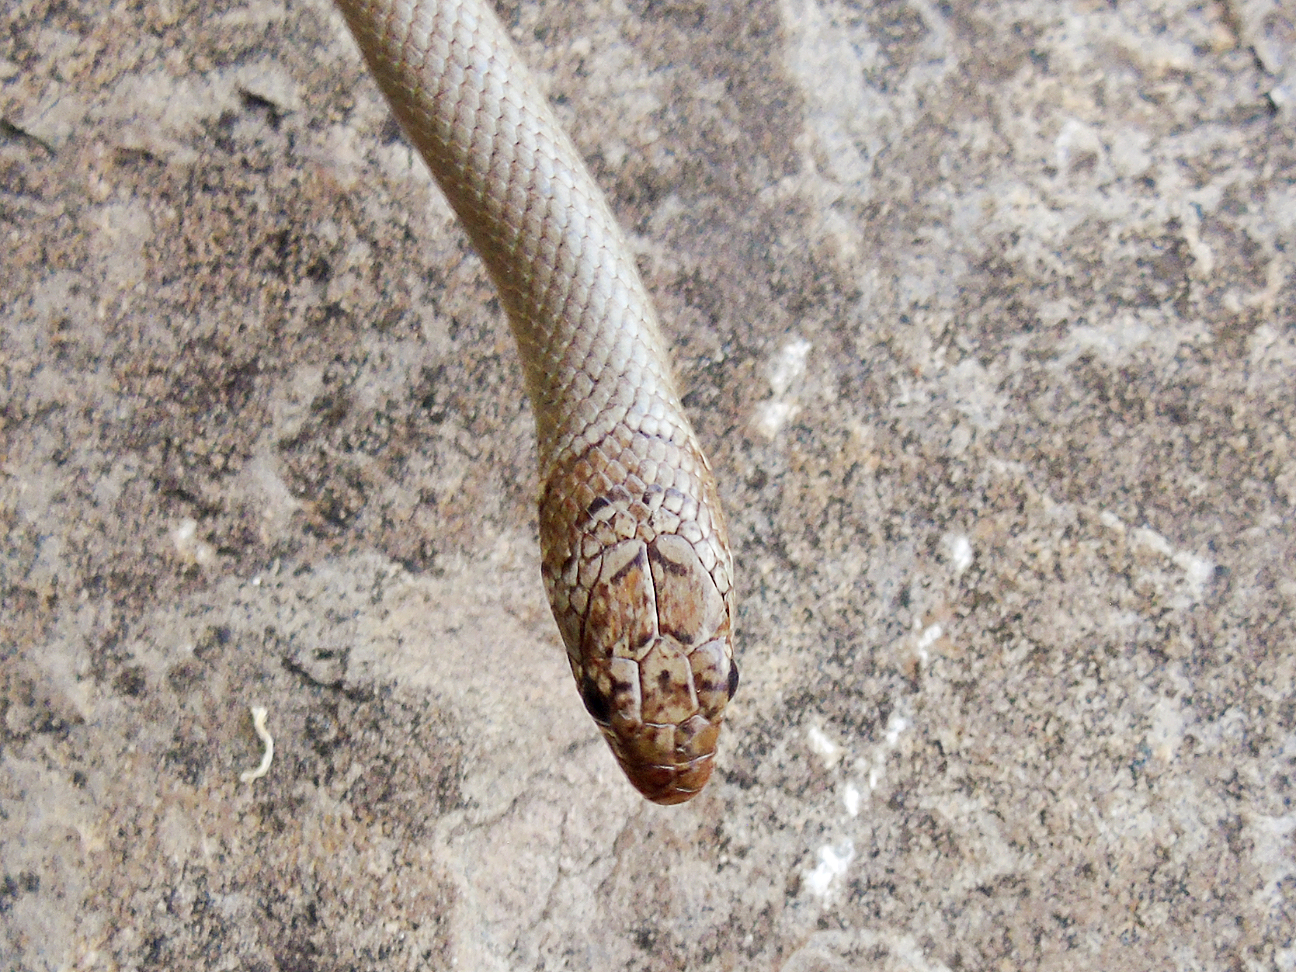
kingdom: Animalia
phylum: Chordata
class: Squamata
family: Colubridae
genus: Eirenis
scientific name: Eirenis modestus
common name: Ring-headed dwarf snake
